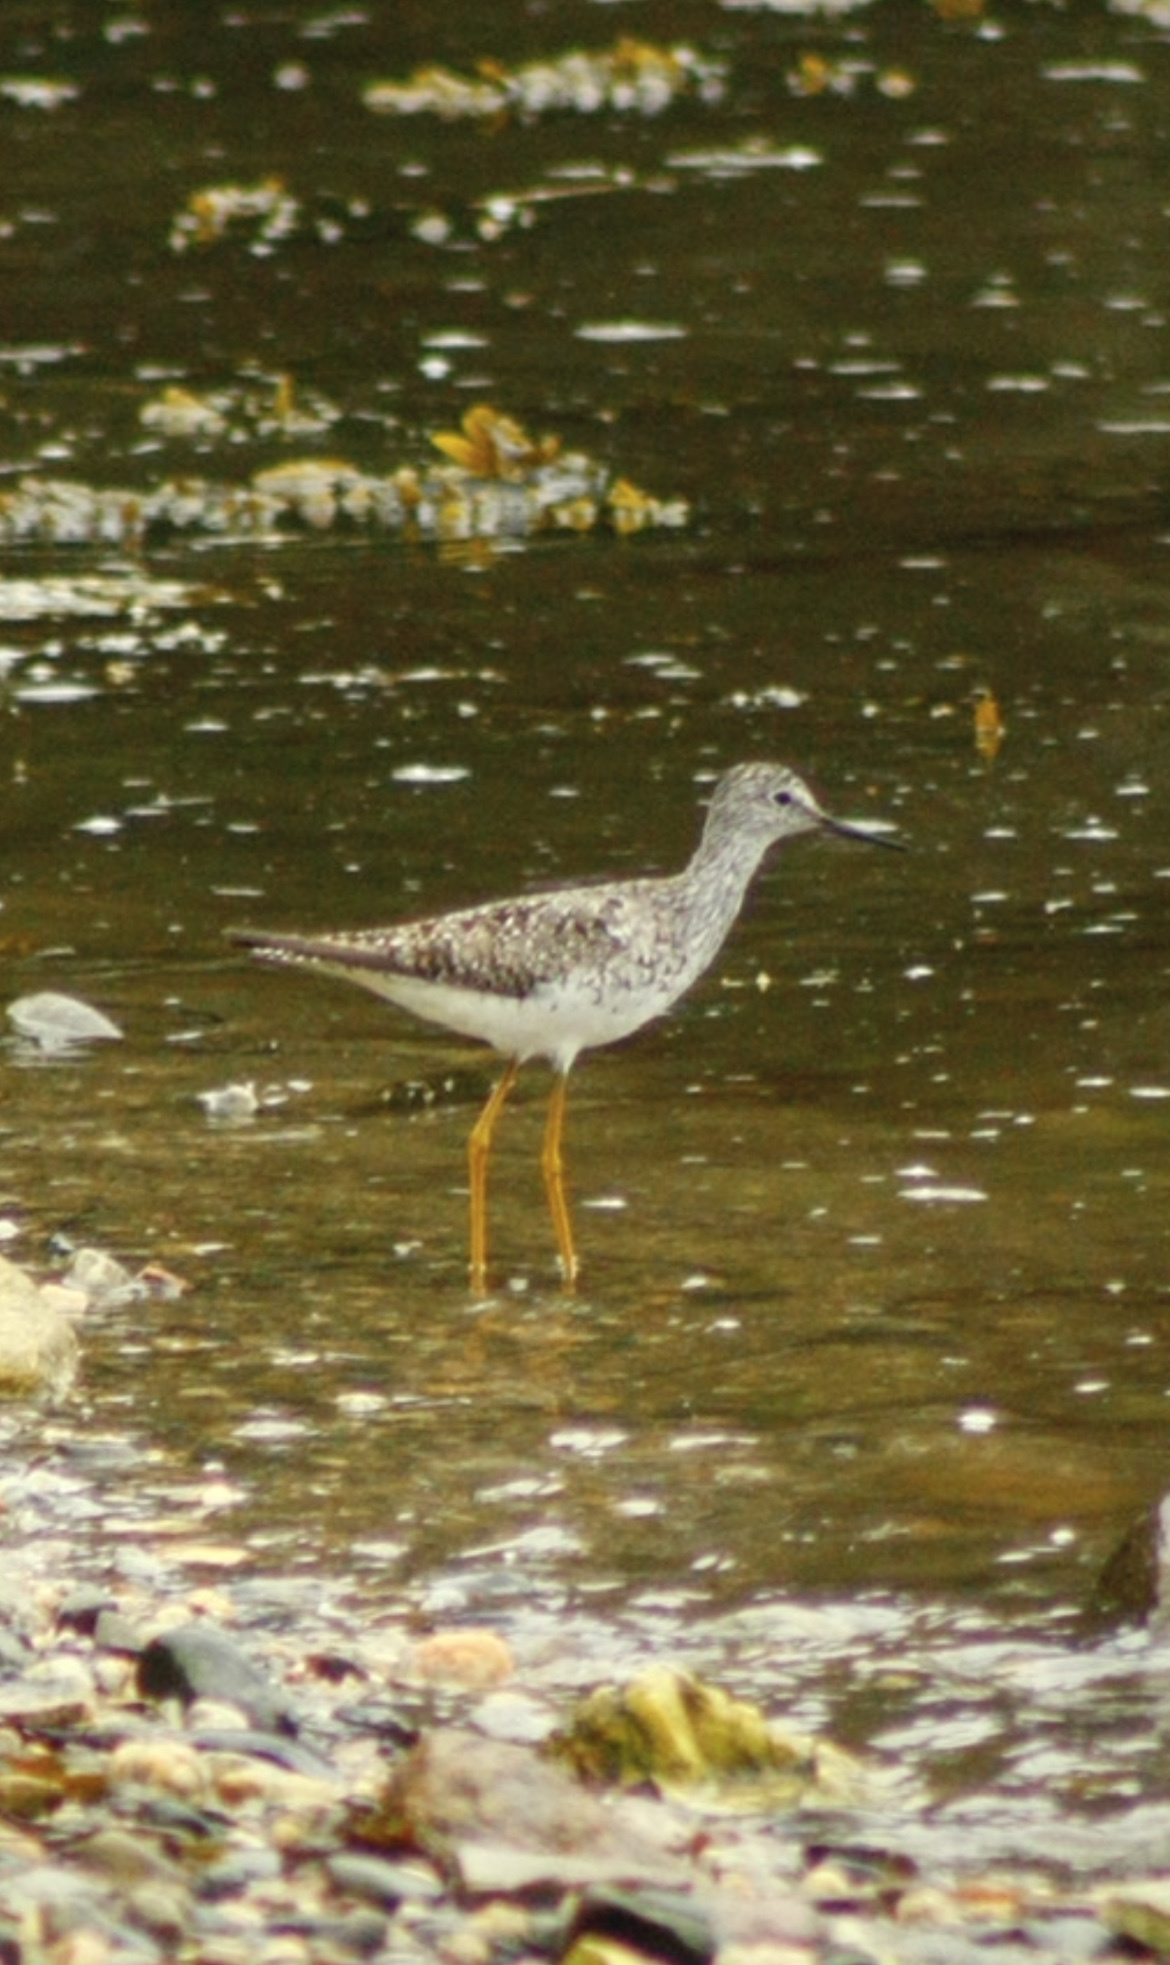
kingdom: Animalia
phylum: Chordata
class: Aves
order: Charadriiformes
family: Scolopacidae
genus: Tringa
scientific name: Tringa flavipes
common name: Lesser yellowlegs
